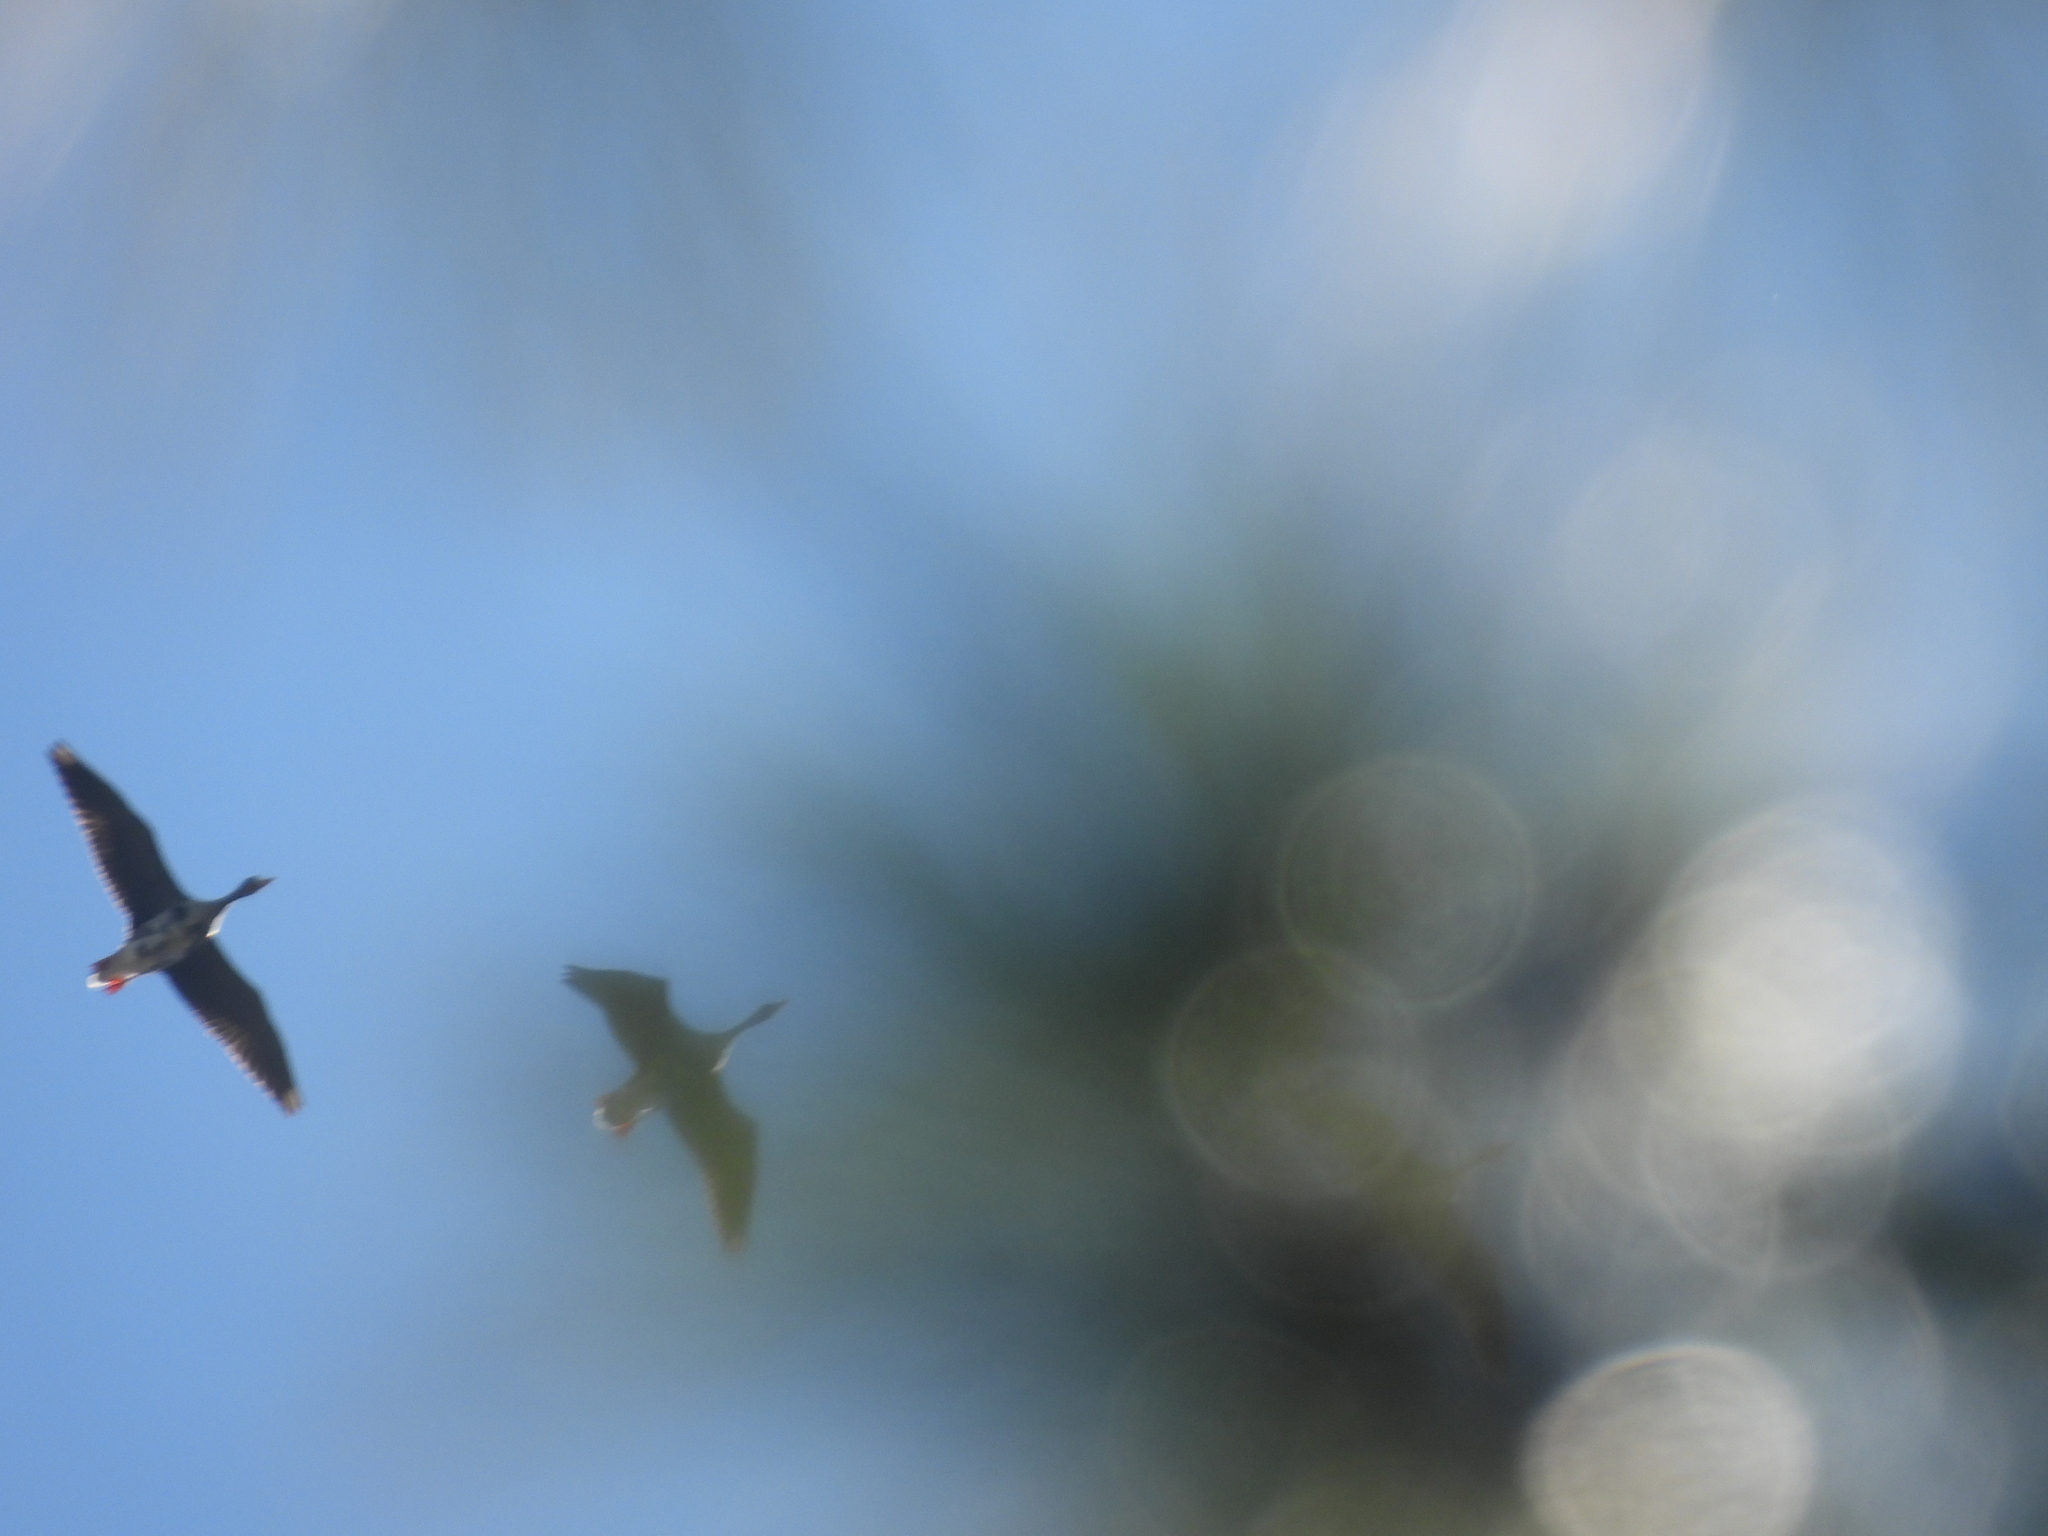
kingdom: Animalia
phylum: Chordata
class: Aves
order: Anseriformes
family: Anatidae
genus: Anser
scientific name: Anser albifrons
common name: Greater white-fronted goose
